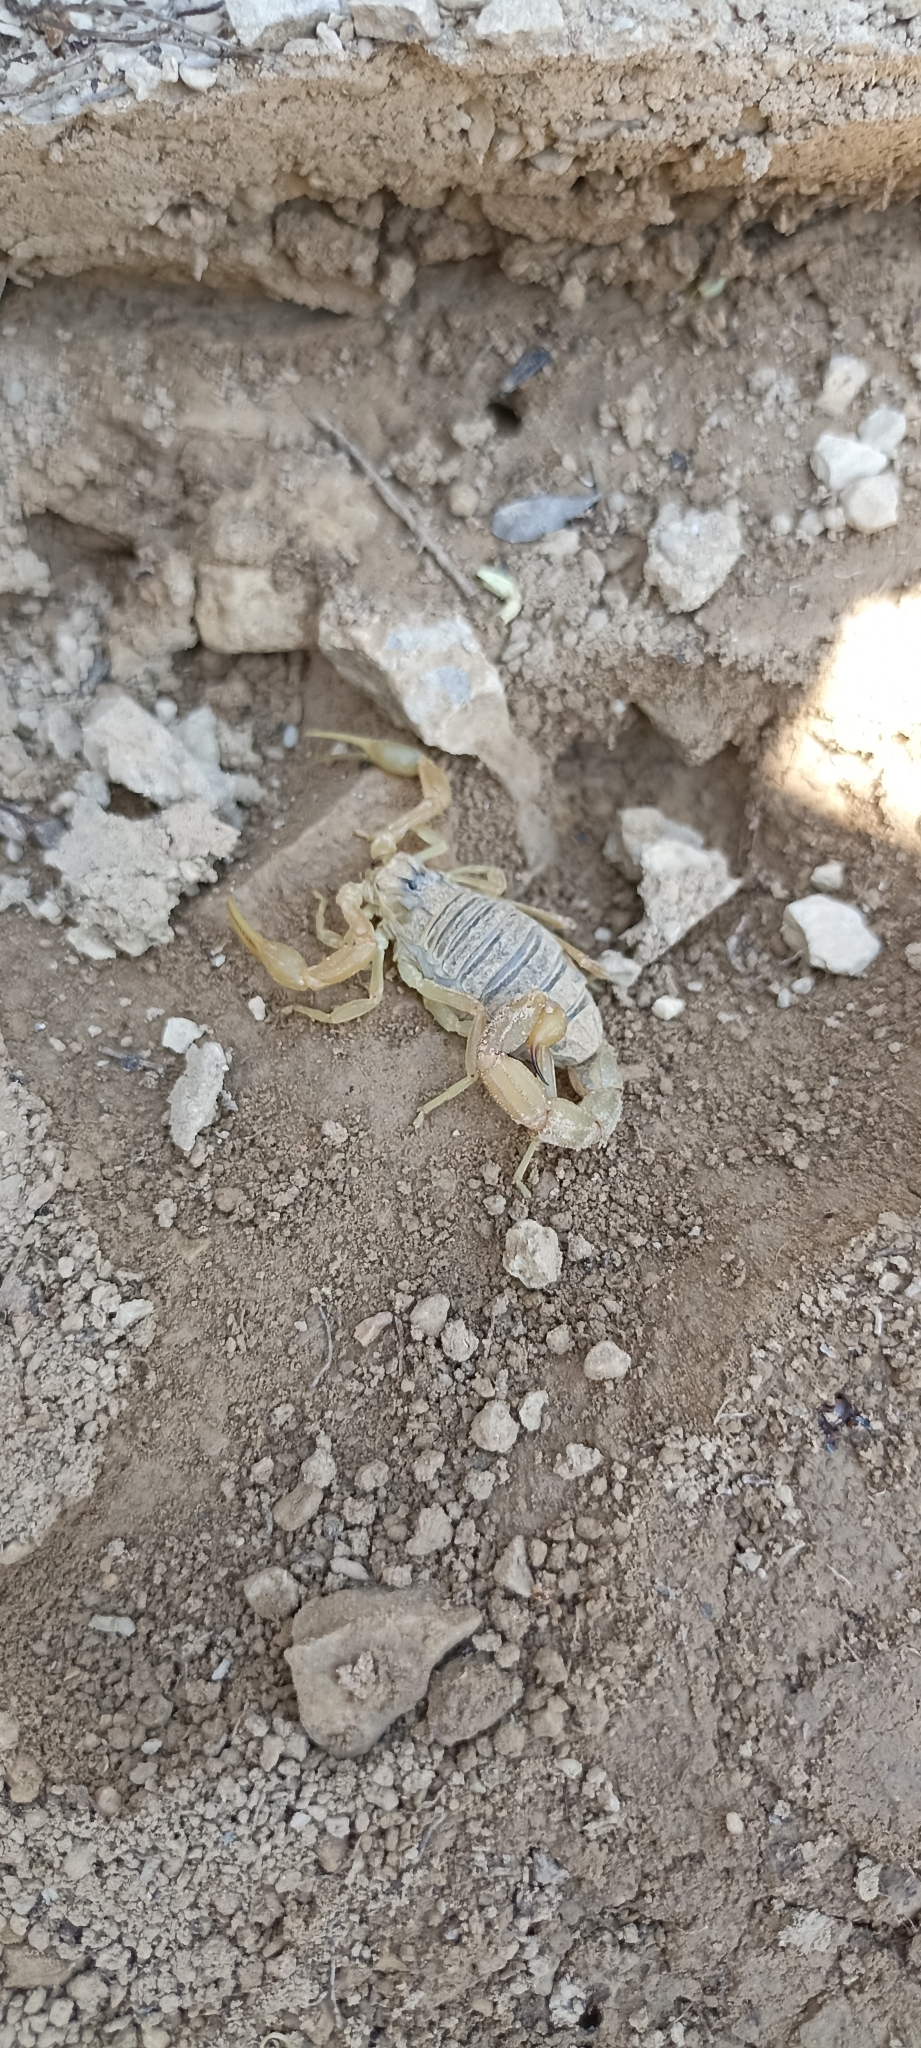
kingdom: Animalia
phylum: Arthropoda
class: Arachnida
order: Scorpiones
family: Buthidae
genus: Buthus
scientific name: Buthus occitanus
